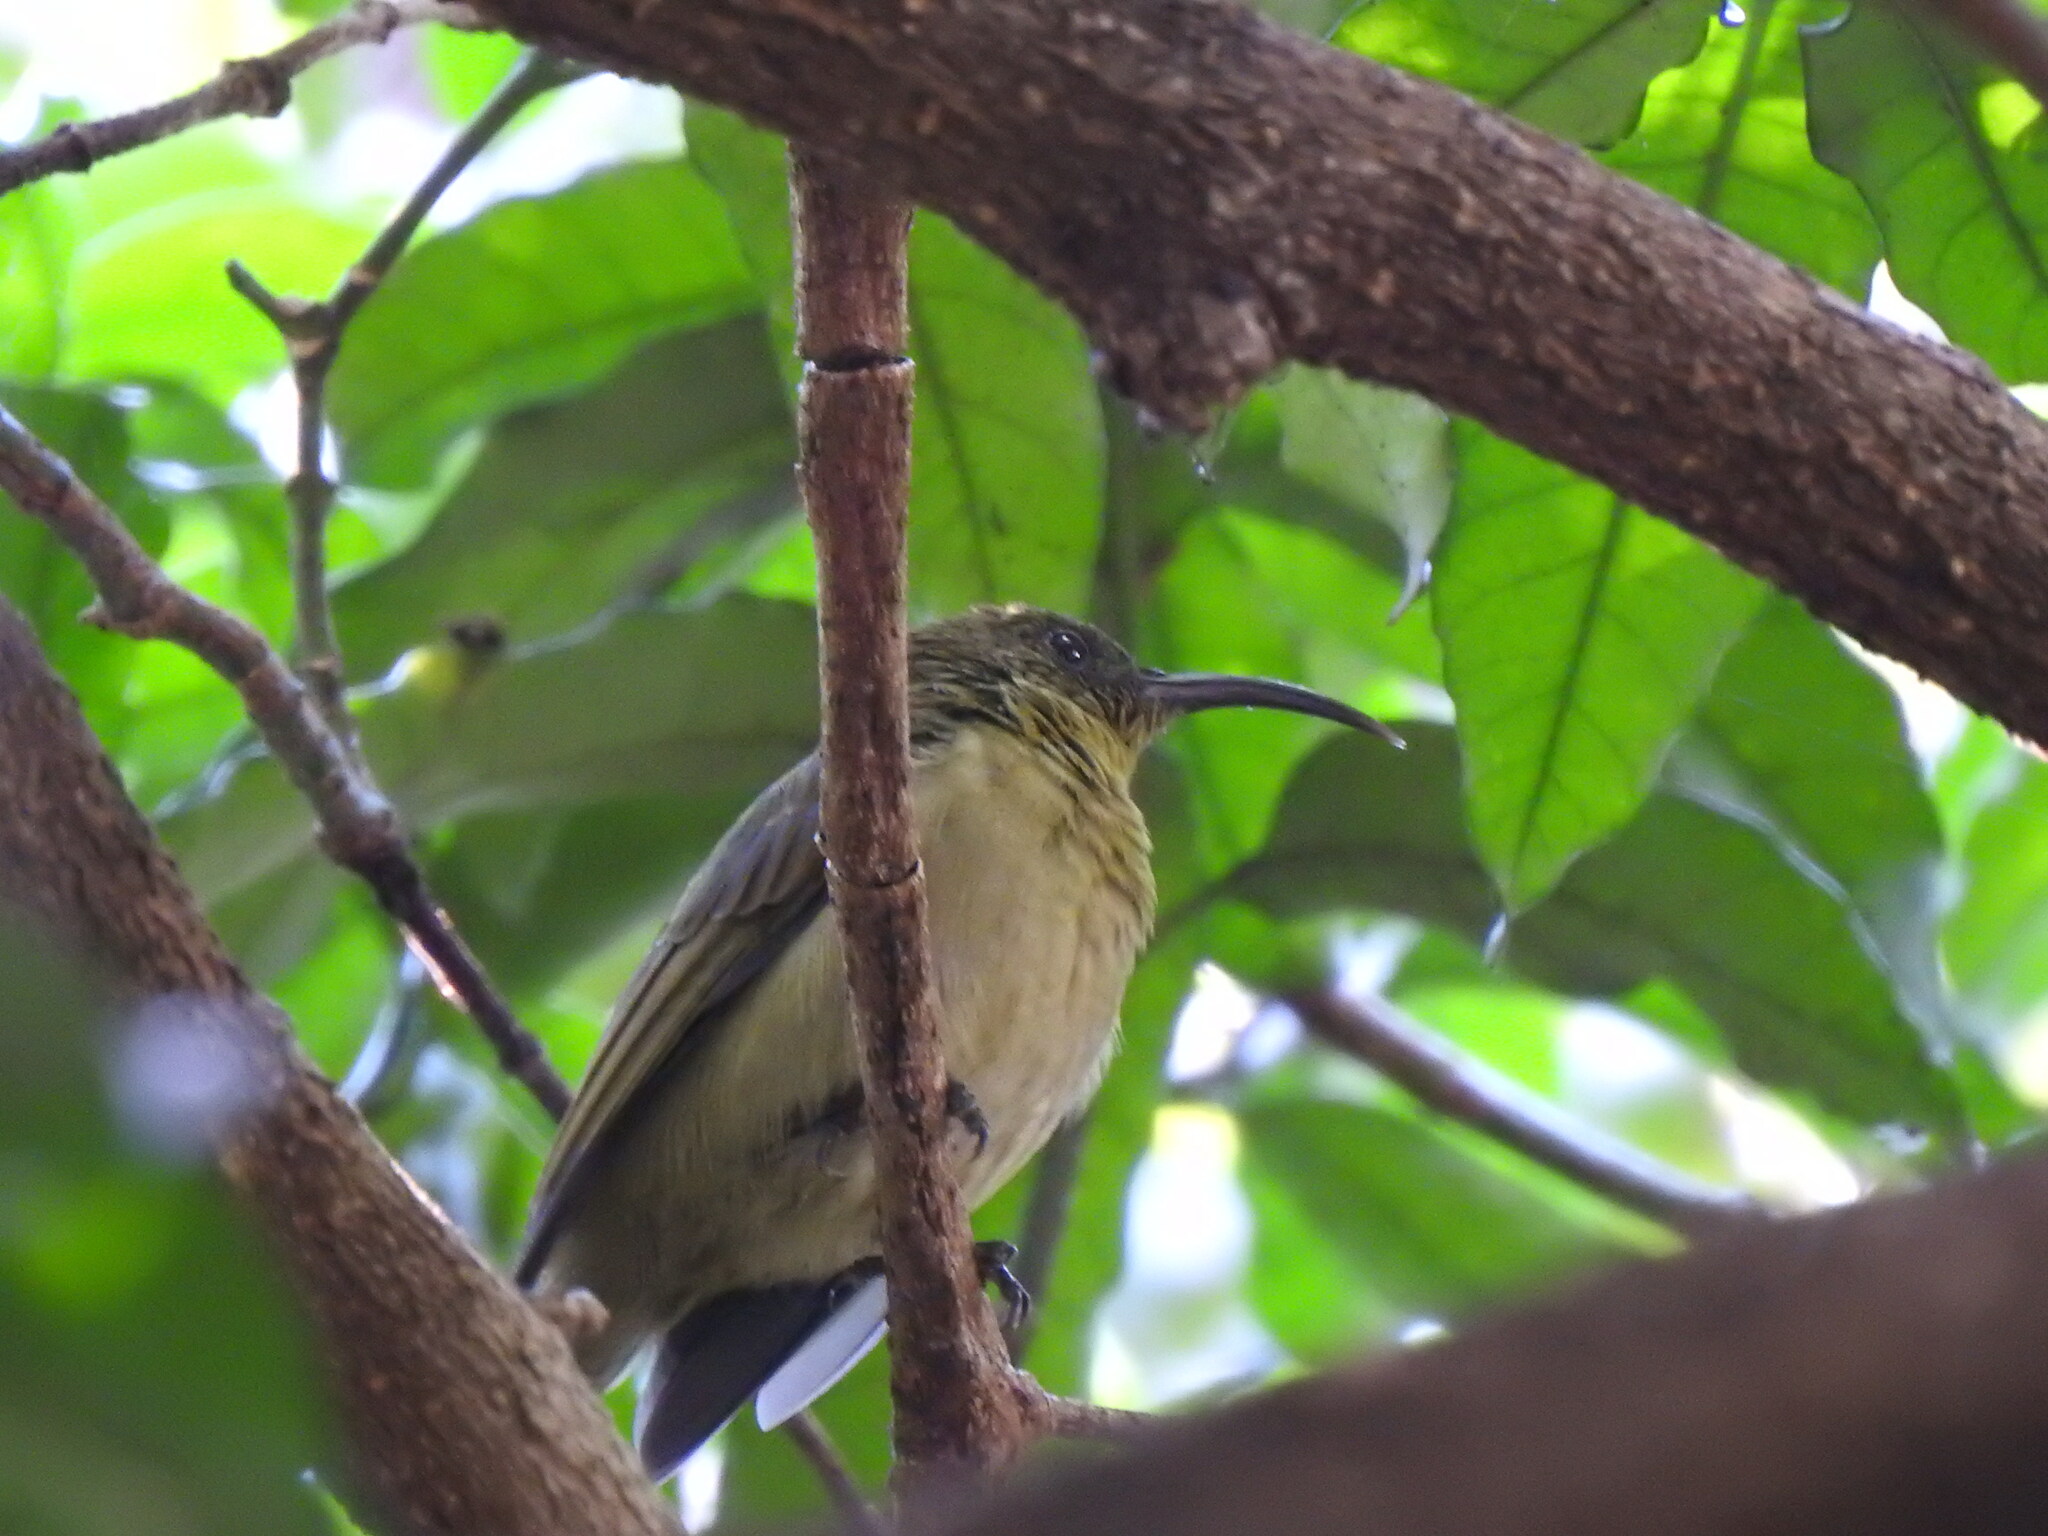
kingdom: Animalia
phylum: Chordata
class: Aves
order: Passeriformes
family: Nectariniidae
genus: Cyanomitra
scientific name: Cyanomitra olivacea
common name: Olive sunbird
